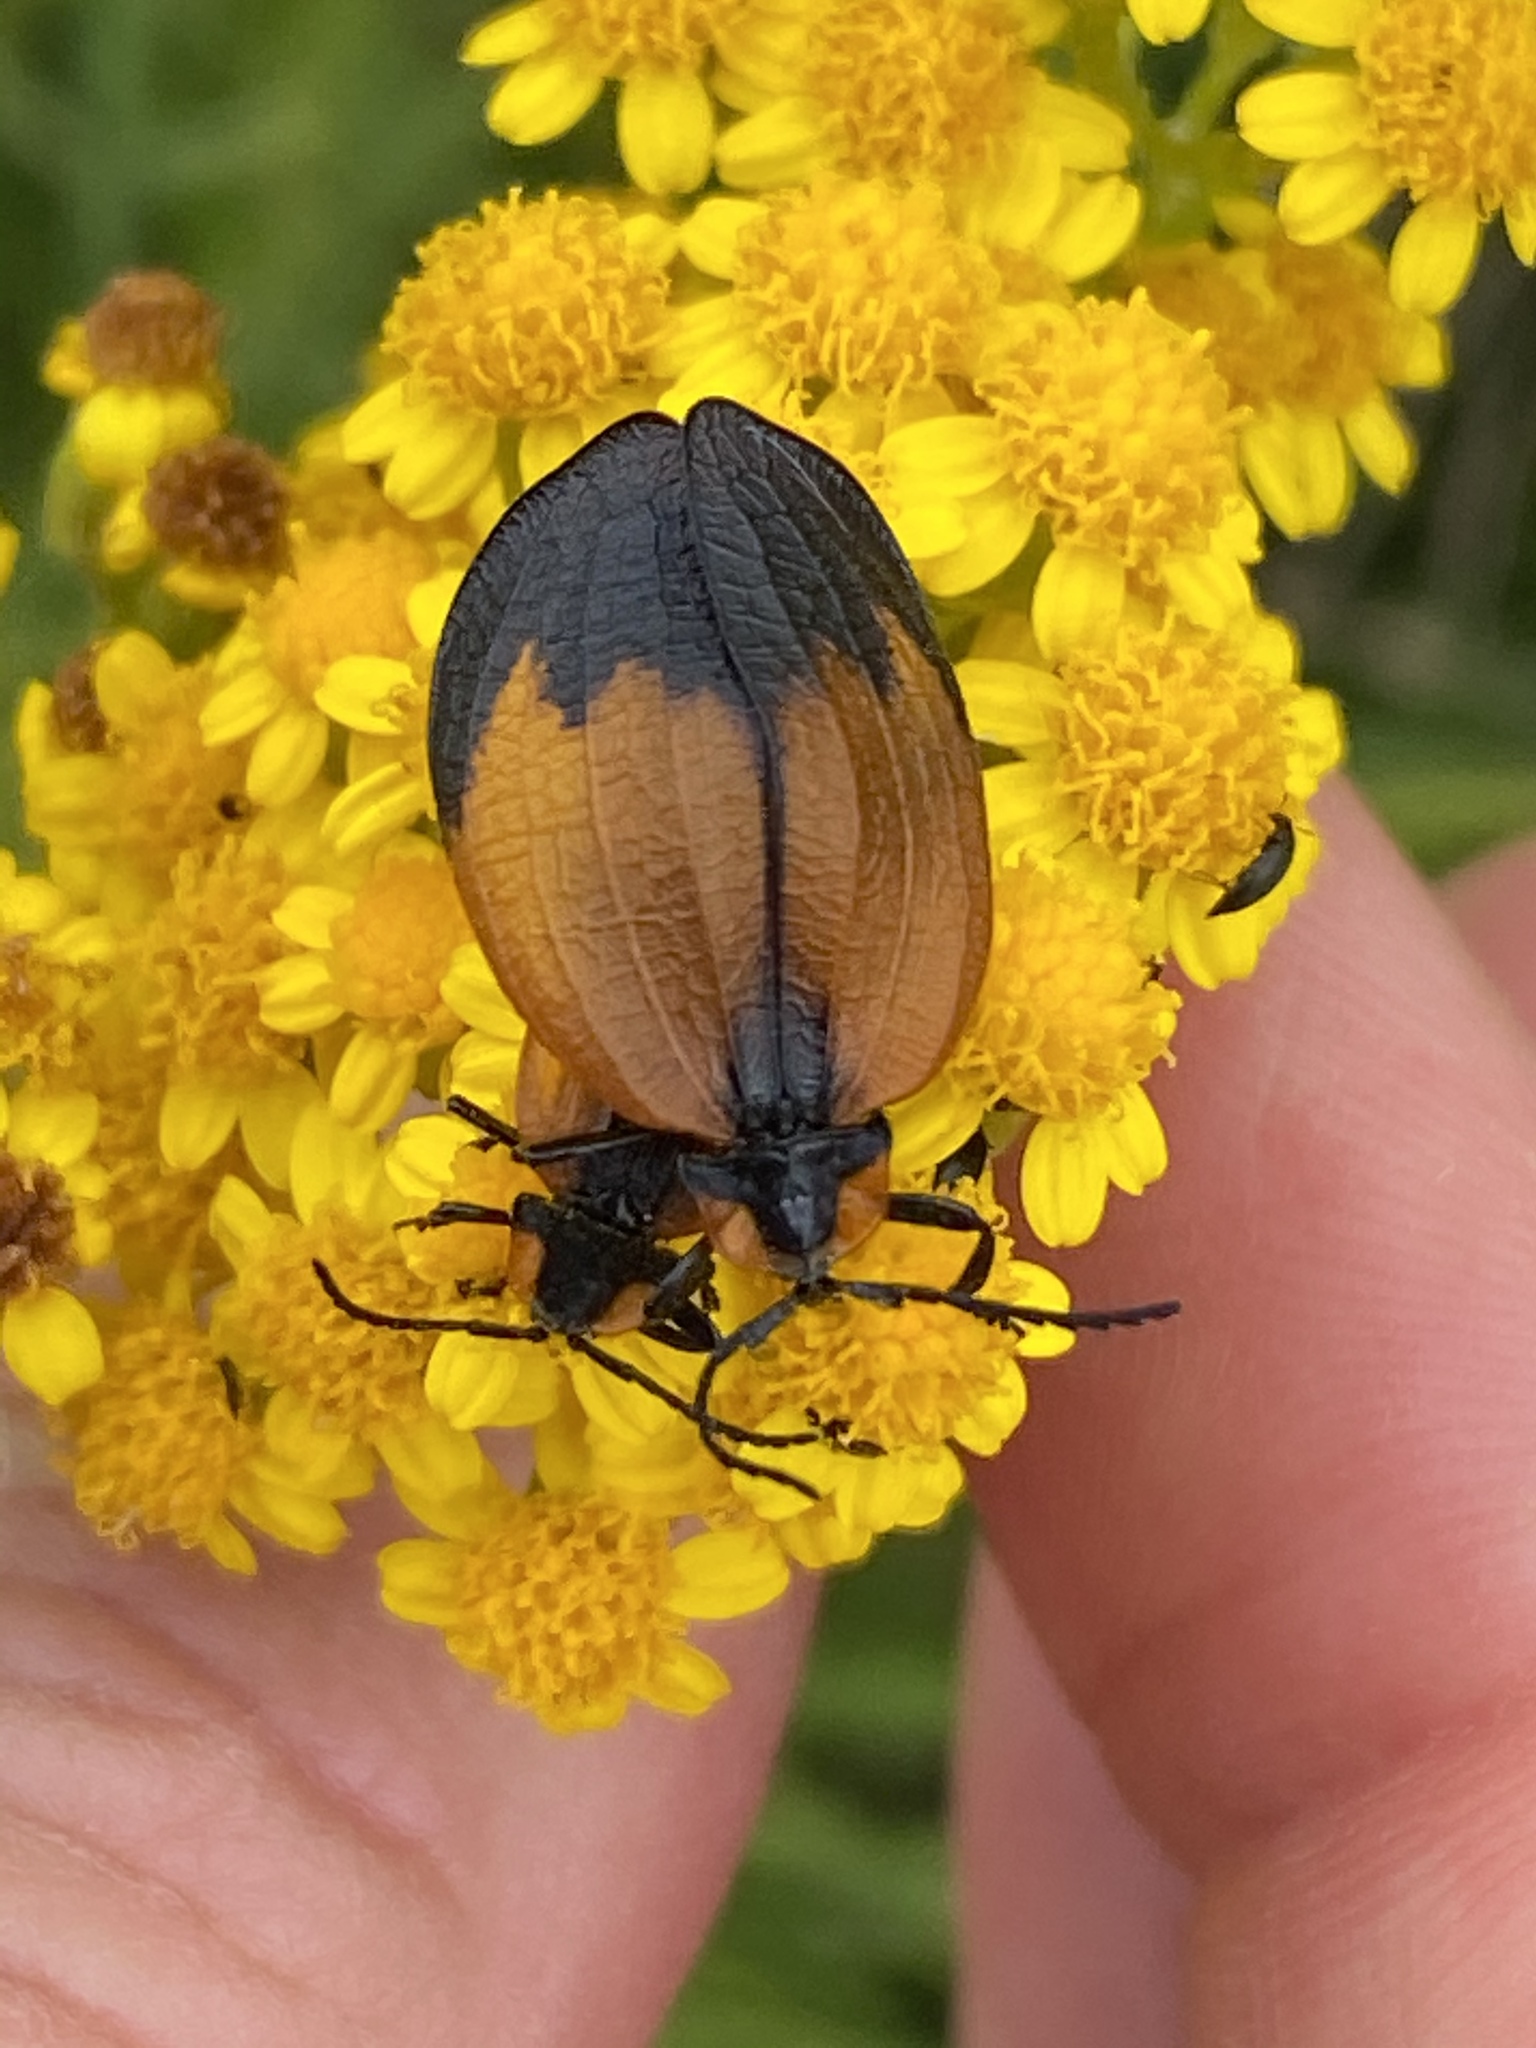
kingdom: Animalia
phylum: Arthropoda
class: Insecta
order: Coleoptera
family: Lycidae
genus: Lycus
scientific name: Lycus
